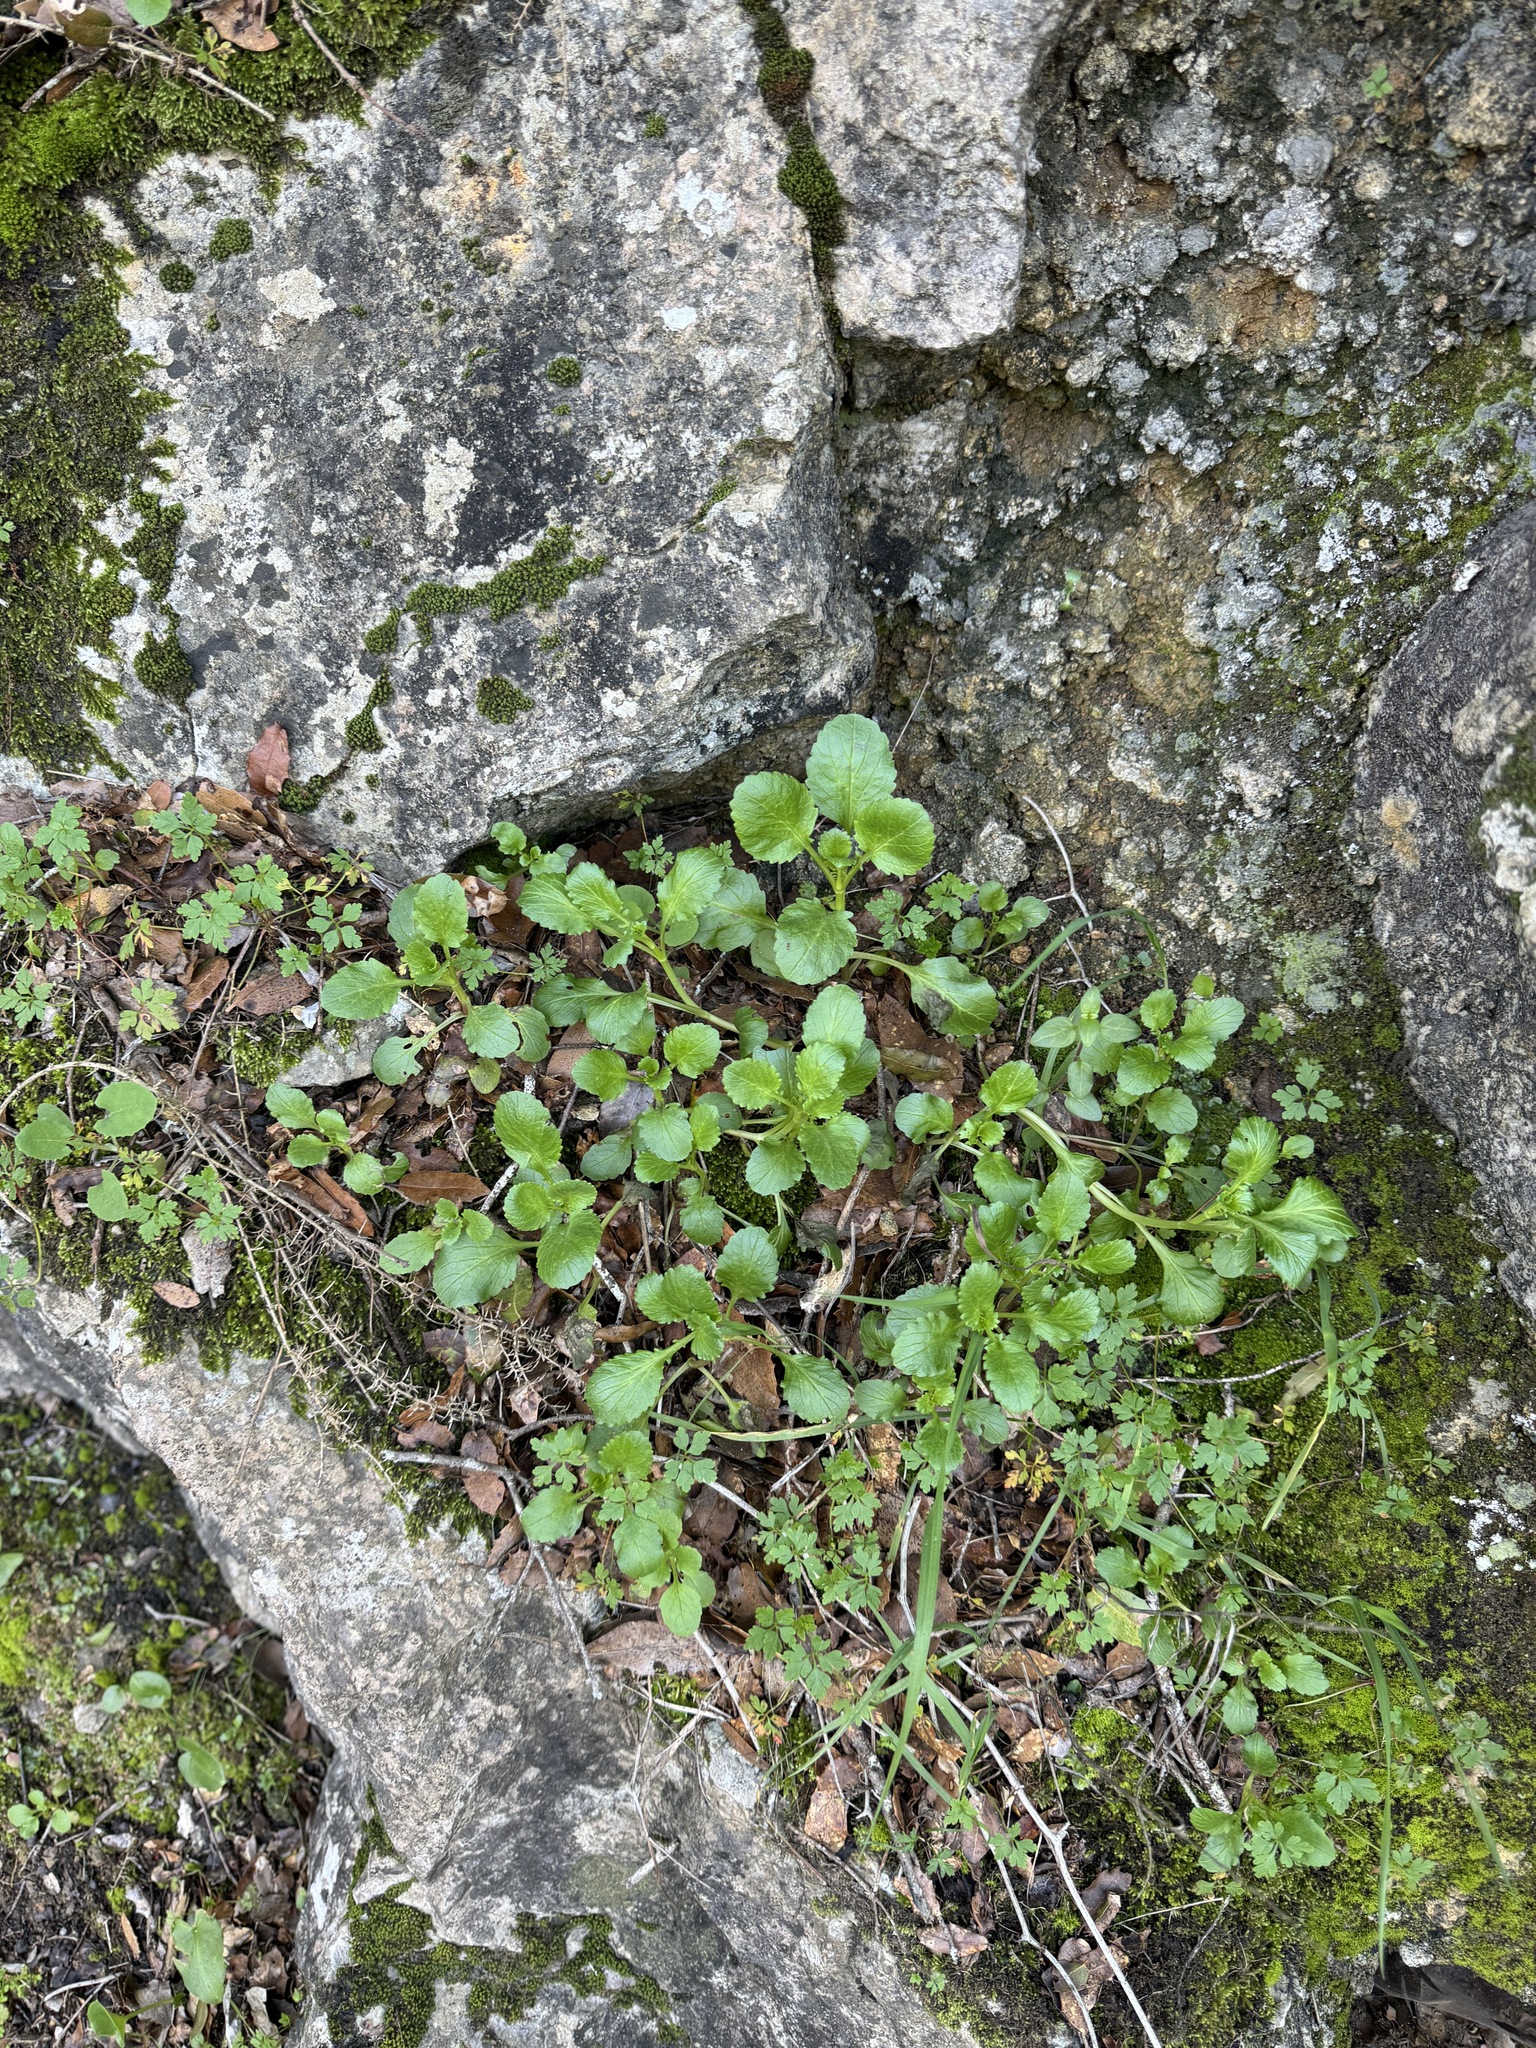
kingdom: Plantae
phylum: Tracheophyta
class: Magnoliopsida
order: Dipsacales
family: Caprifoliaceae
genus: Centranthus
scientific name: Centranthus calcitrapae
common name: Annual valerian
